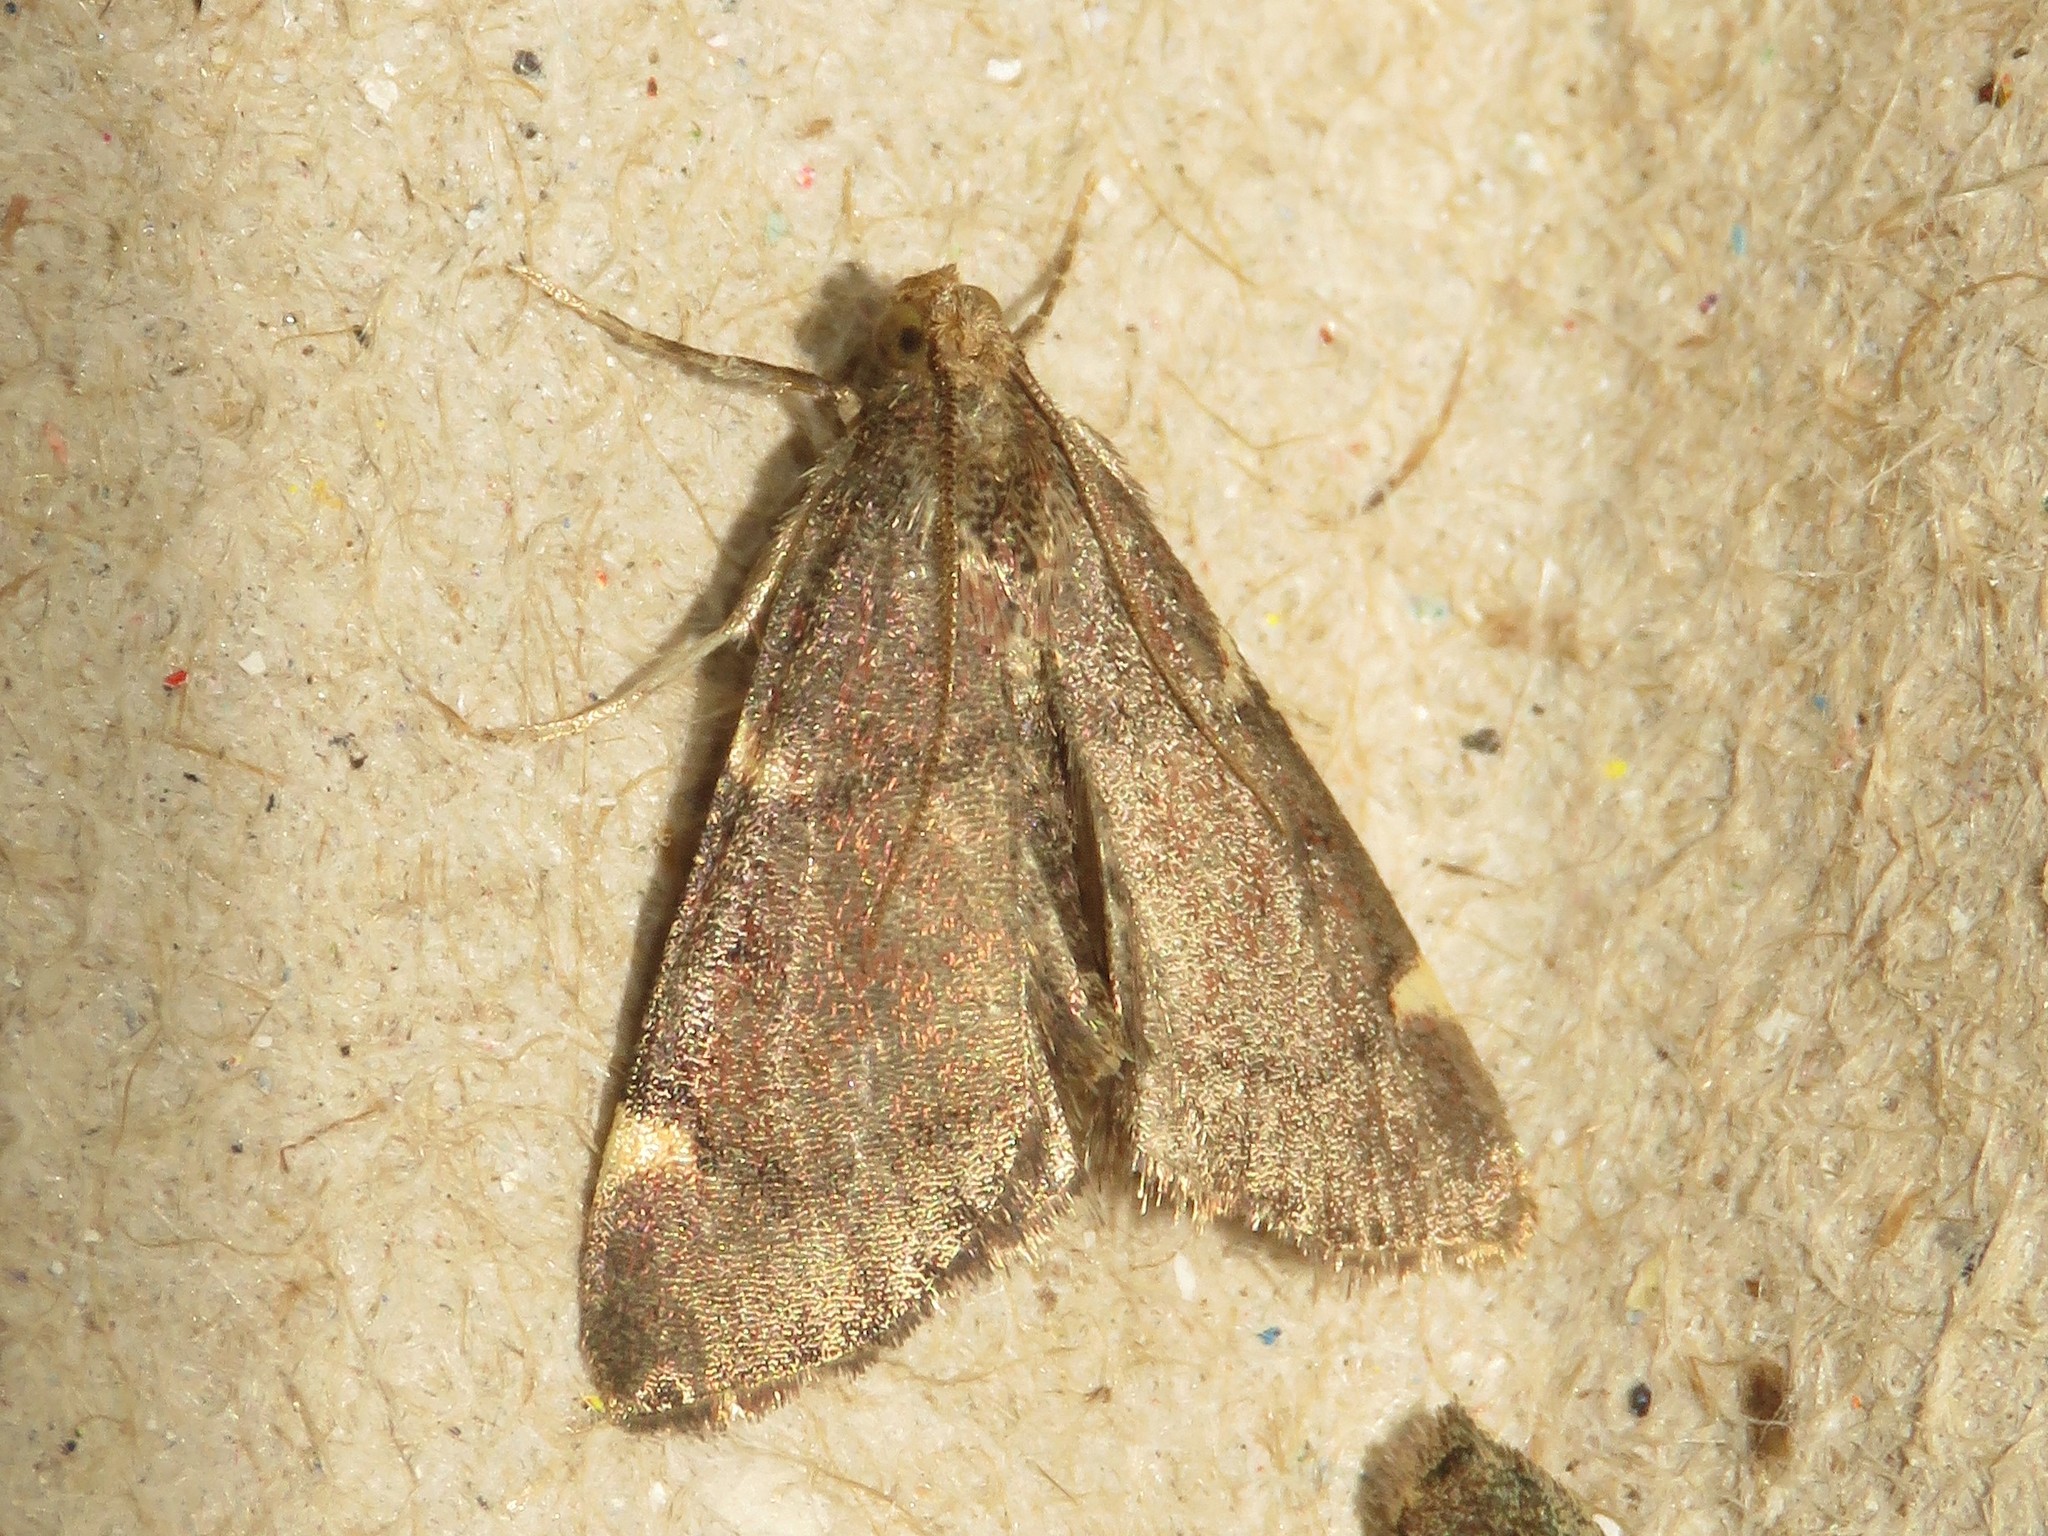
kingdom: Animalia
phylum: Arthropoda
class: Insecta
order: Lepidoptera
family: Pyralidae
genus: Hypsopygia
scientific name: Hypsopygia thymetusalis
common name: Spruce needleworm moth
